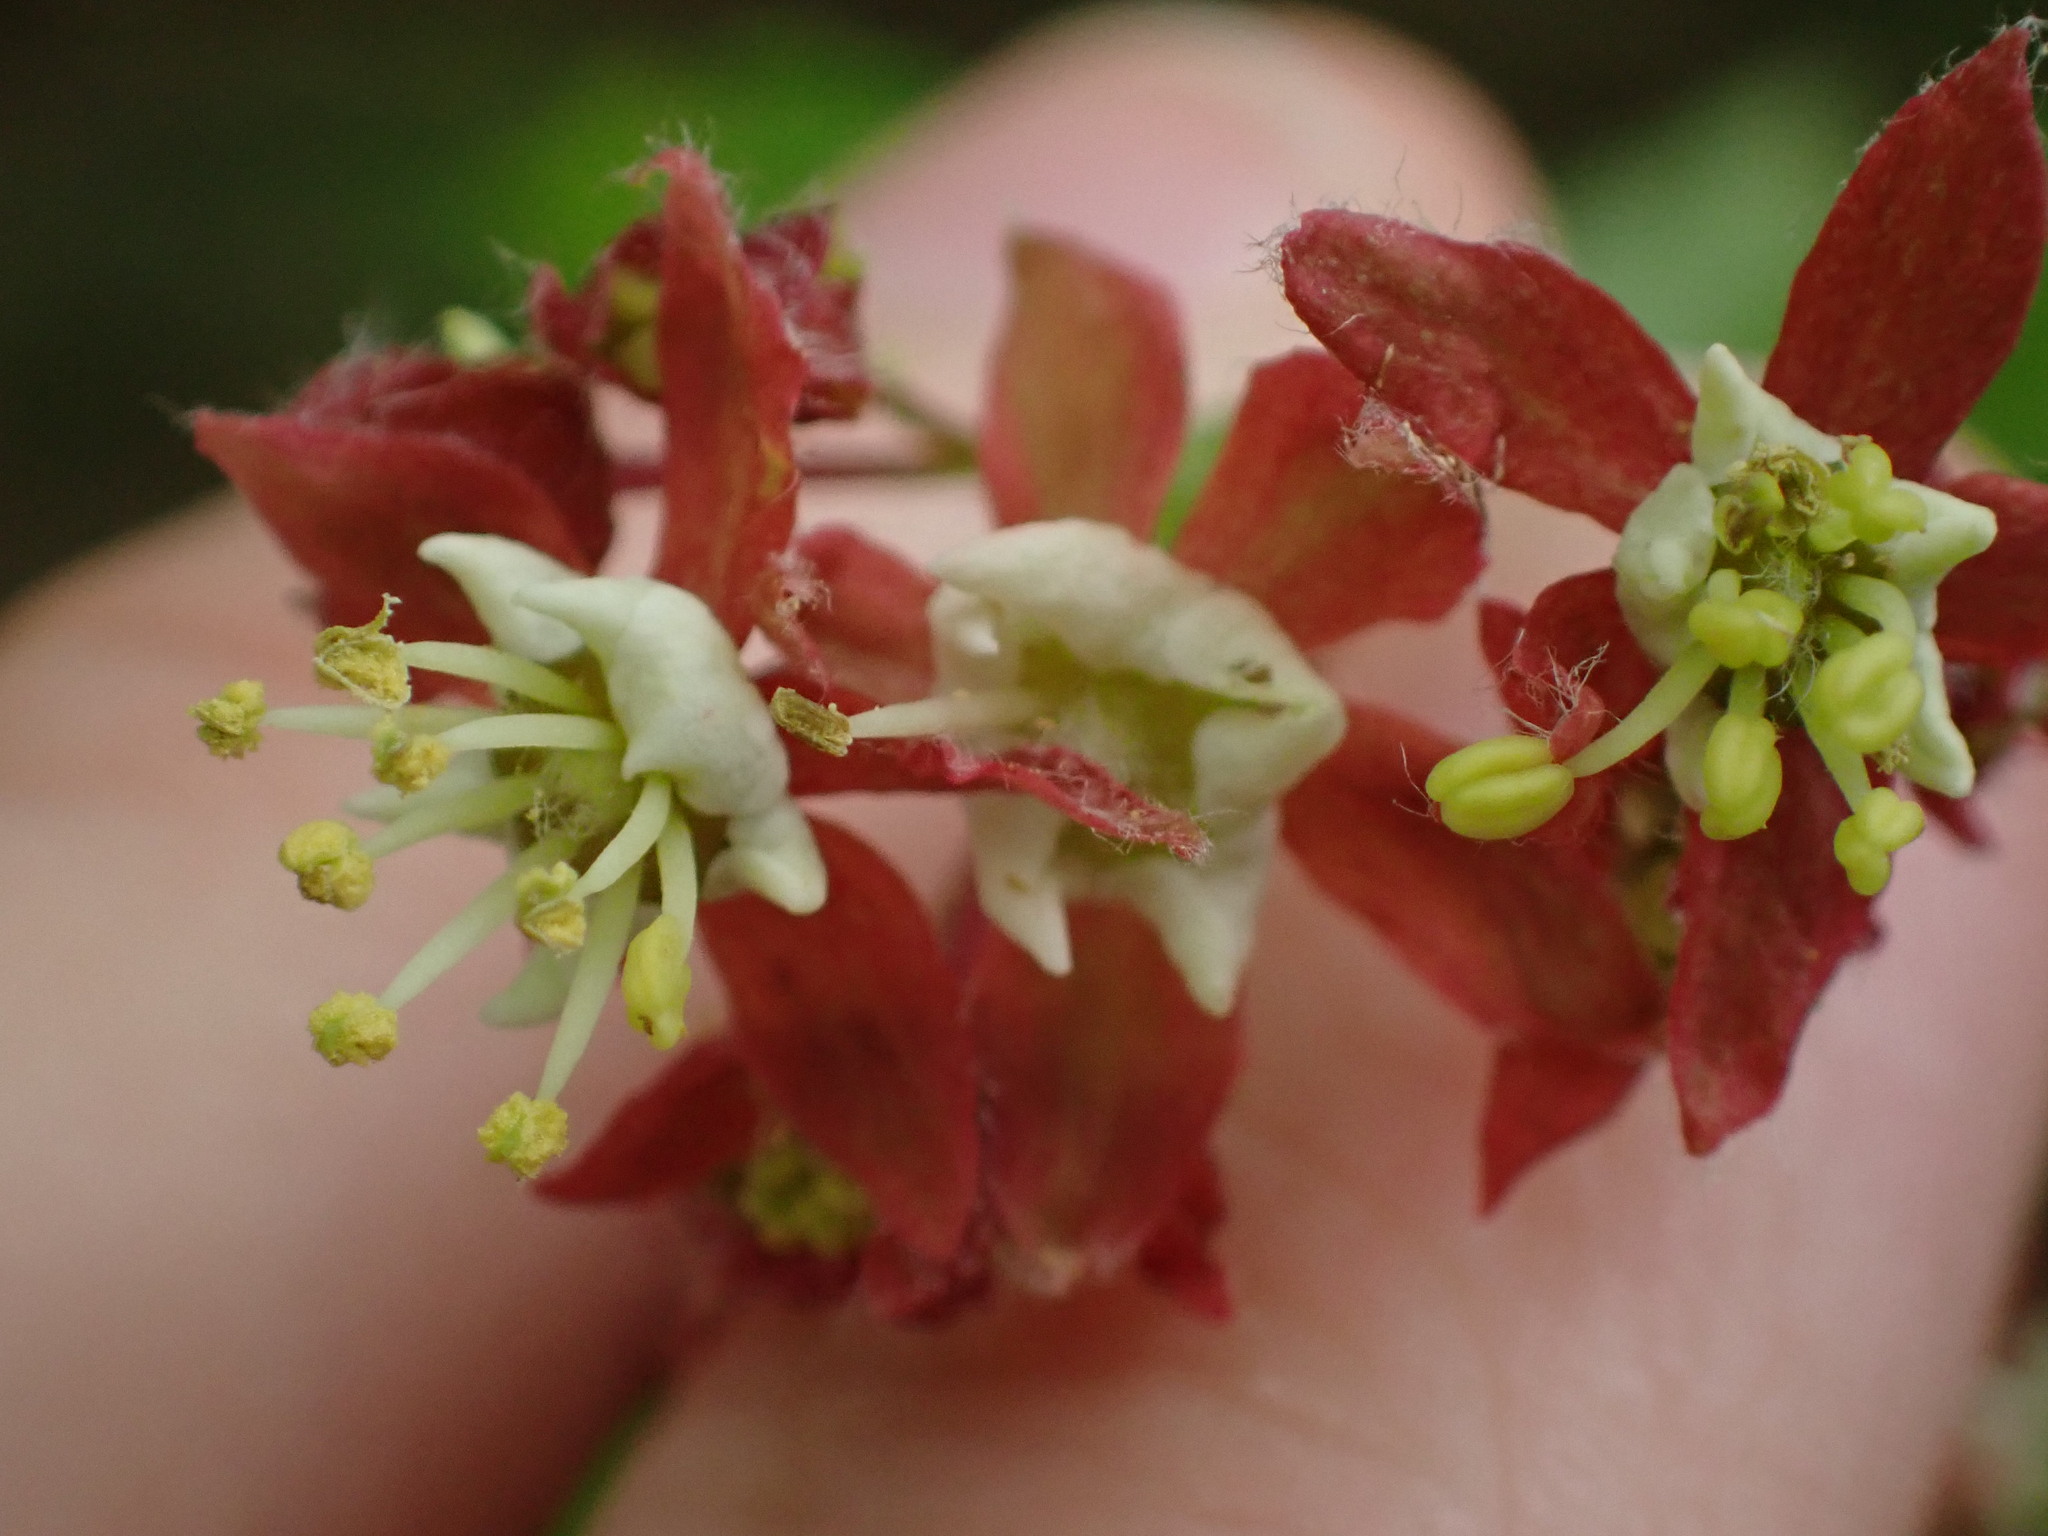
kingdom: Plantae
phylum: Tracheophyta
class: Magnoliopsida
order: Sapindales
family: Sapindaceae
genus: Acer
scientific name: Acer circinatum
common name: Vine maple
